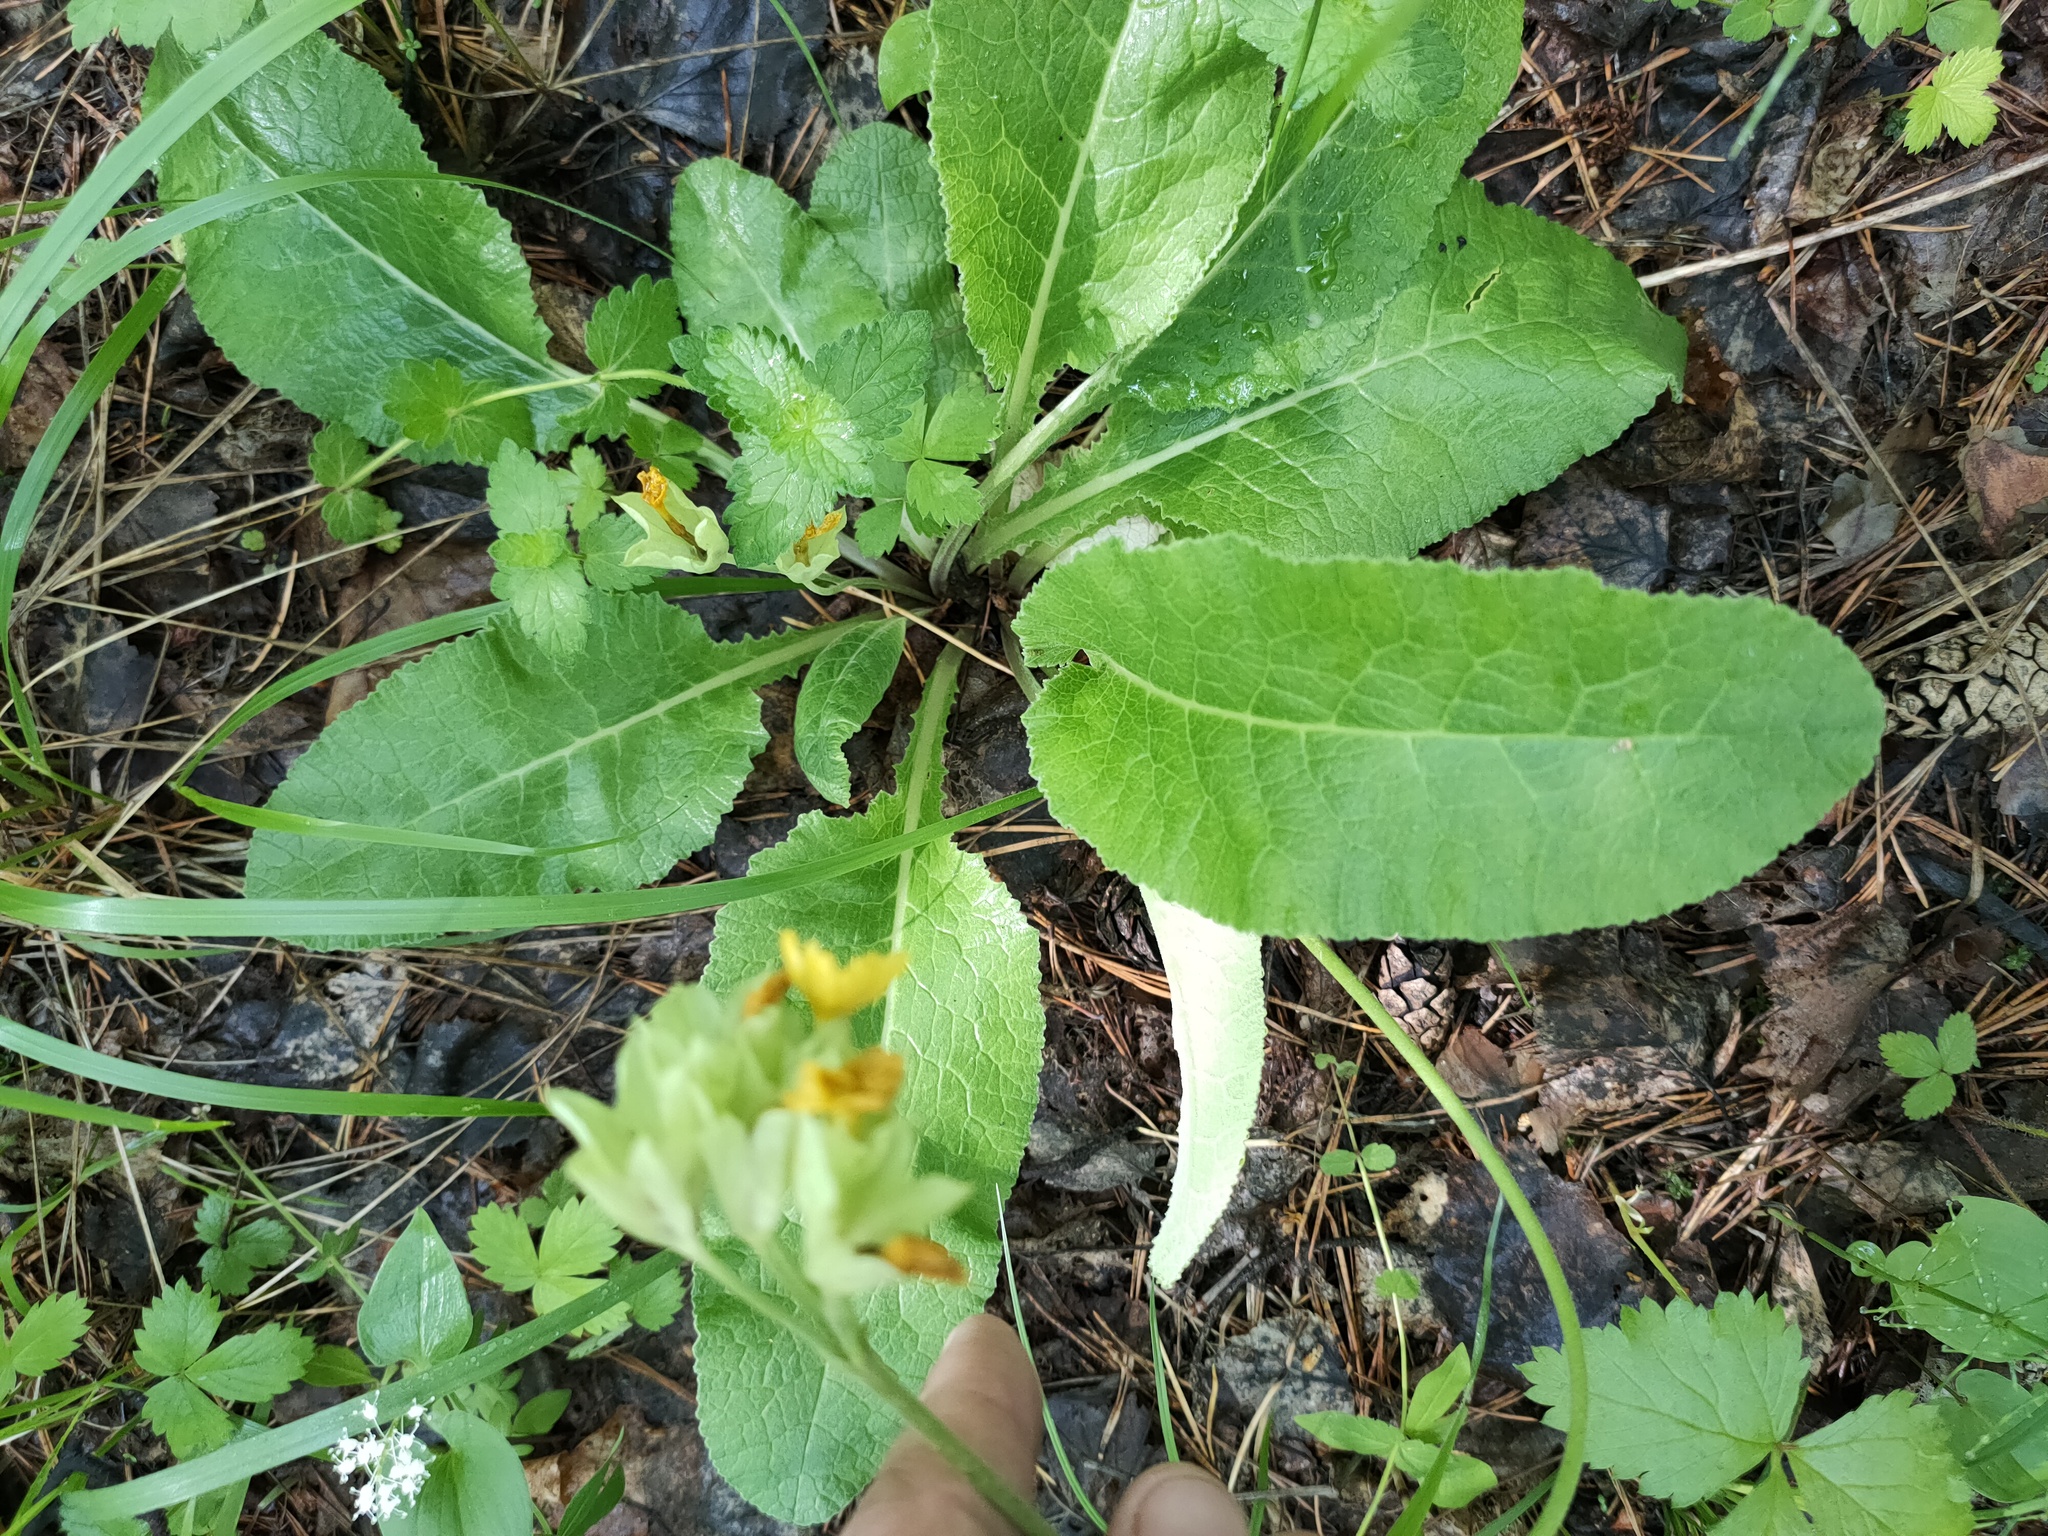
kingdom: Plantae
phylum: Tracheophyta
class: Magnoliopsida
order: Ericales
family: Primulaceae
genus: Primula
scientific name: Primula veris
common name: Cowslip
